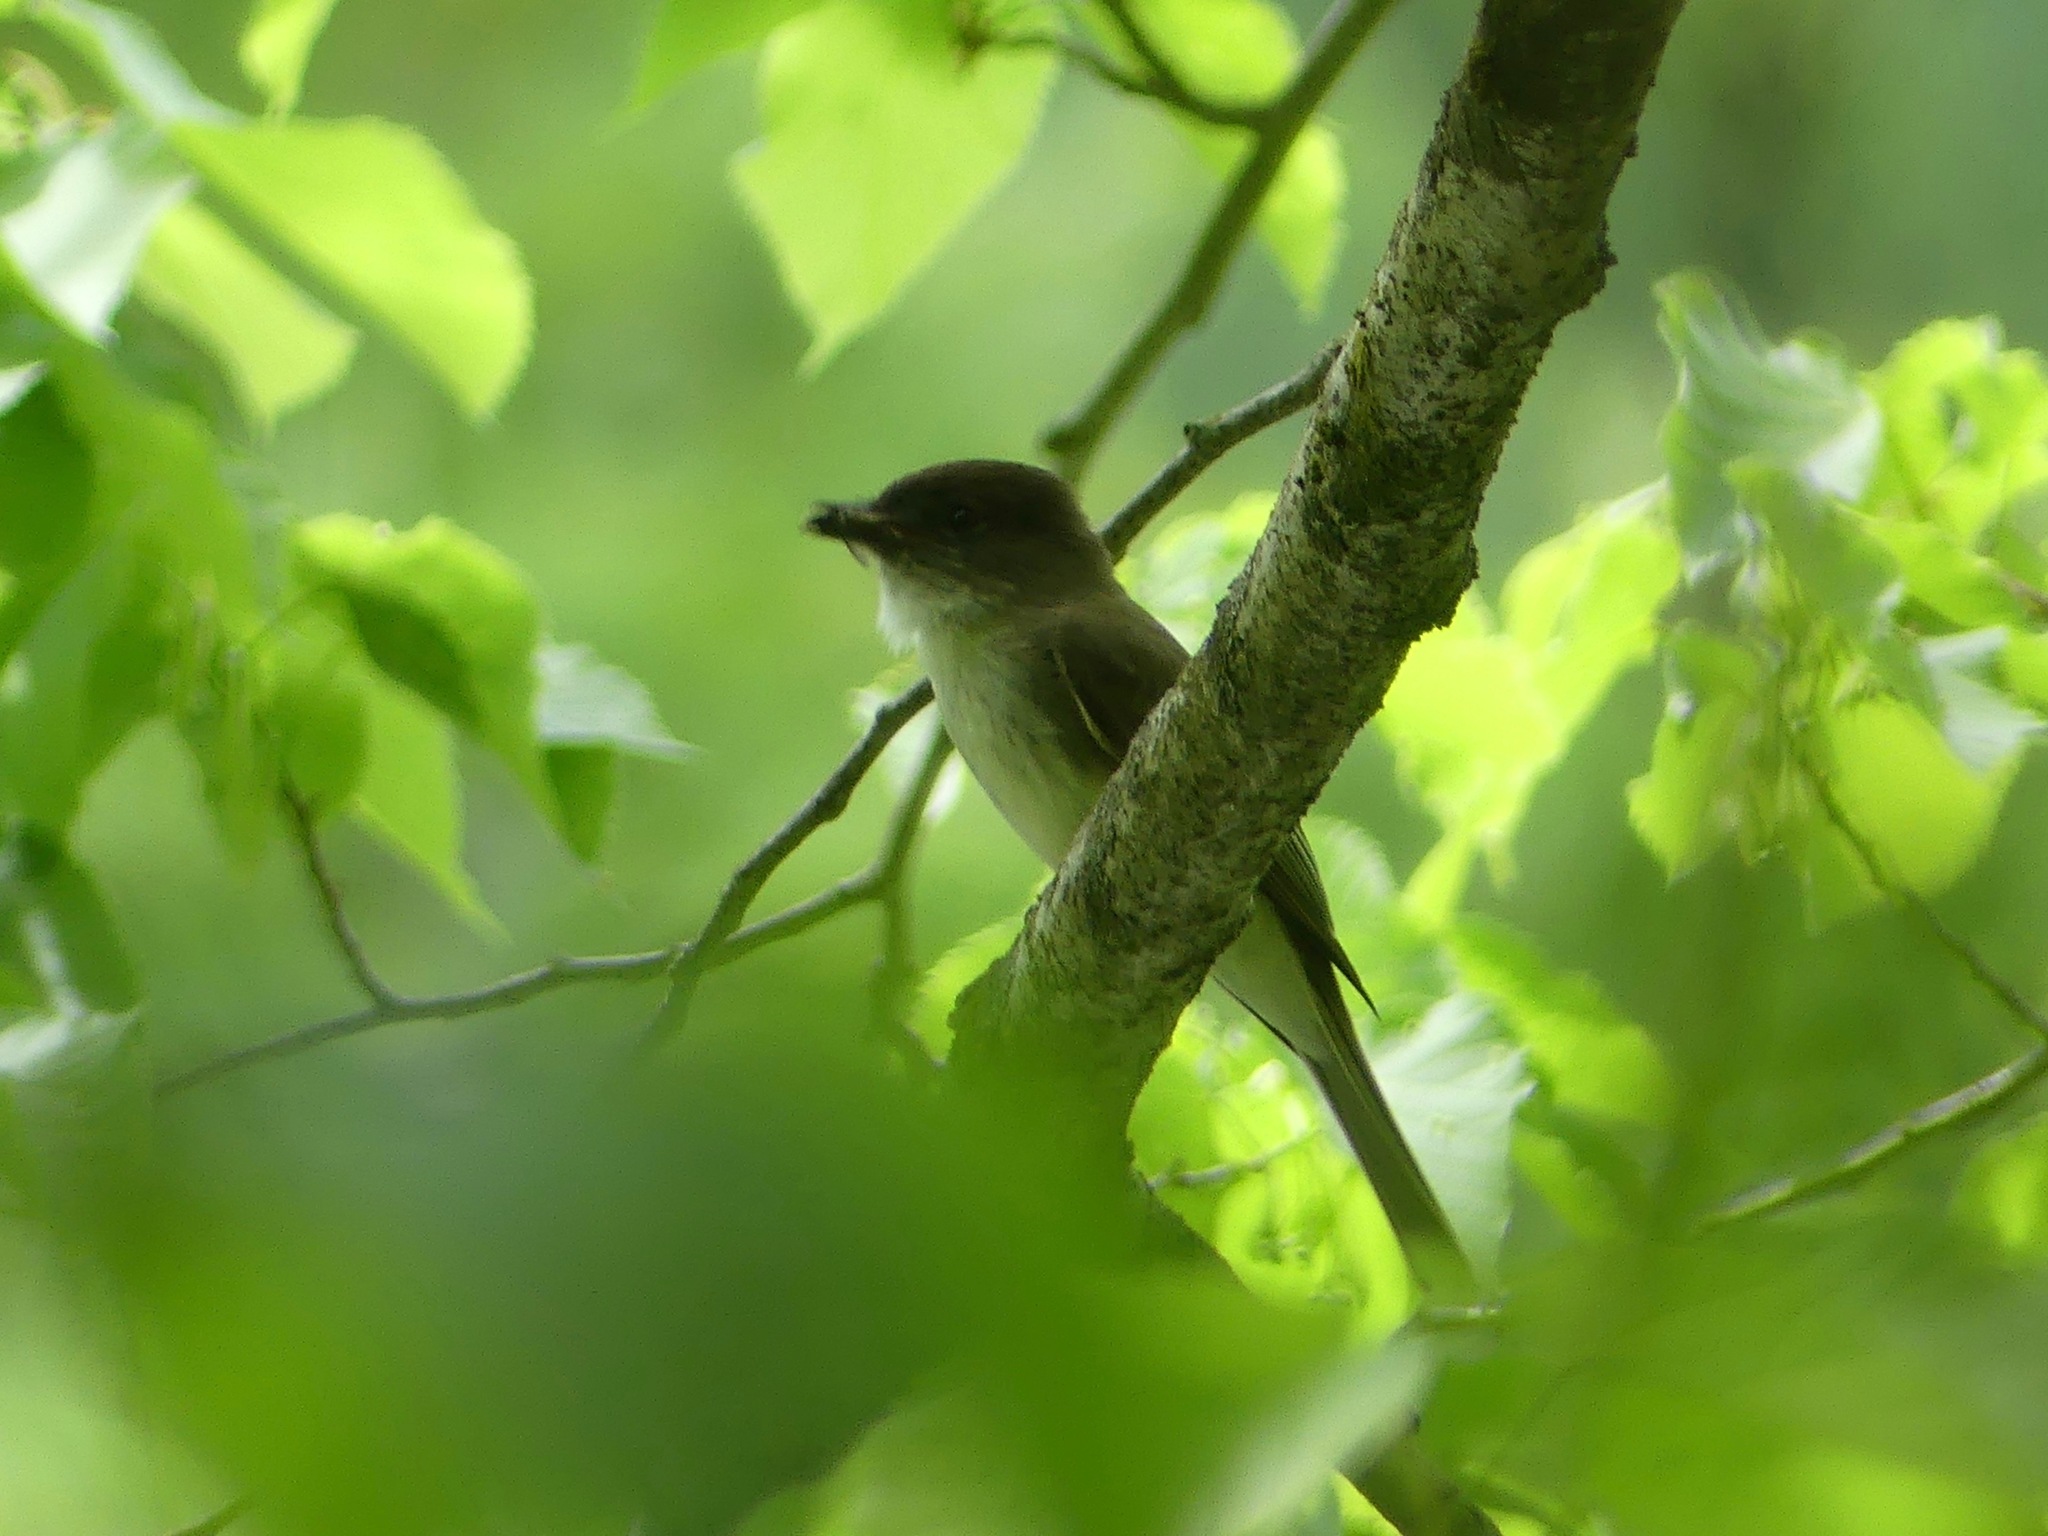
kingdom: Animalia
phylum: Chordata
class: Aves
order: Passeriformes
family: Tyrannidae
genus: Sayornis
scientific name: Sayornis phoebe
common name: Eastern phoebe
